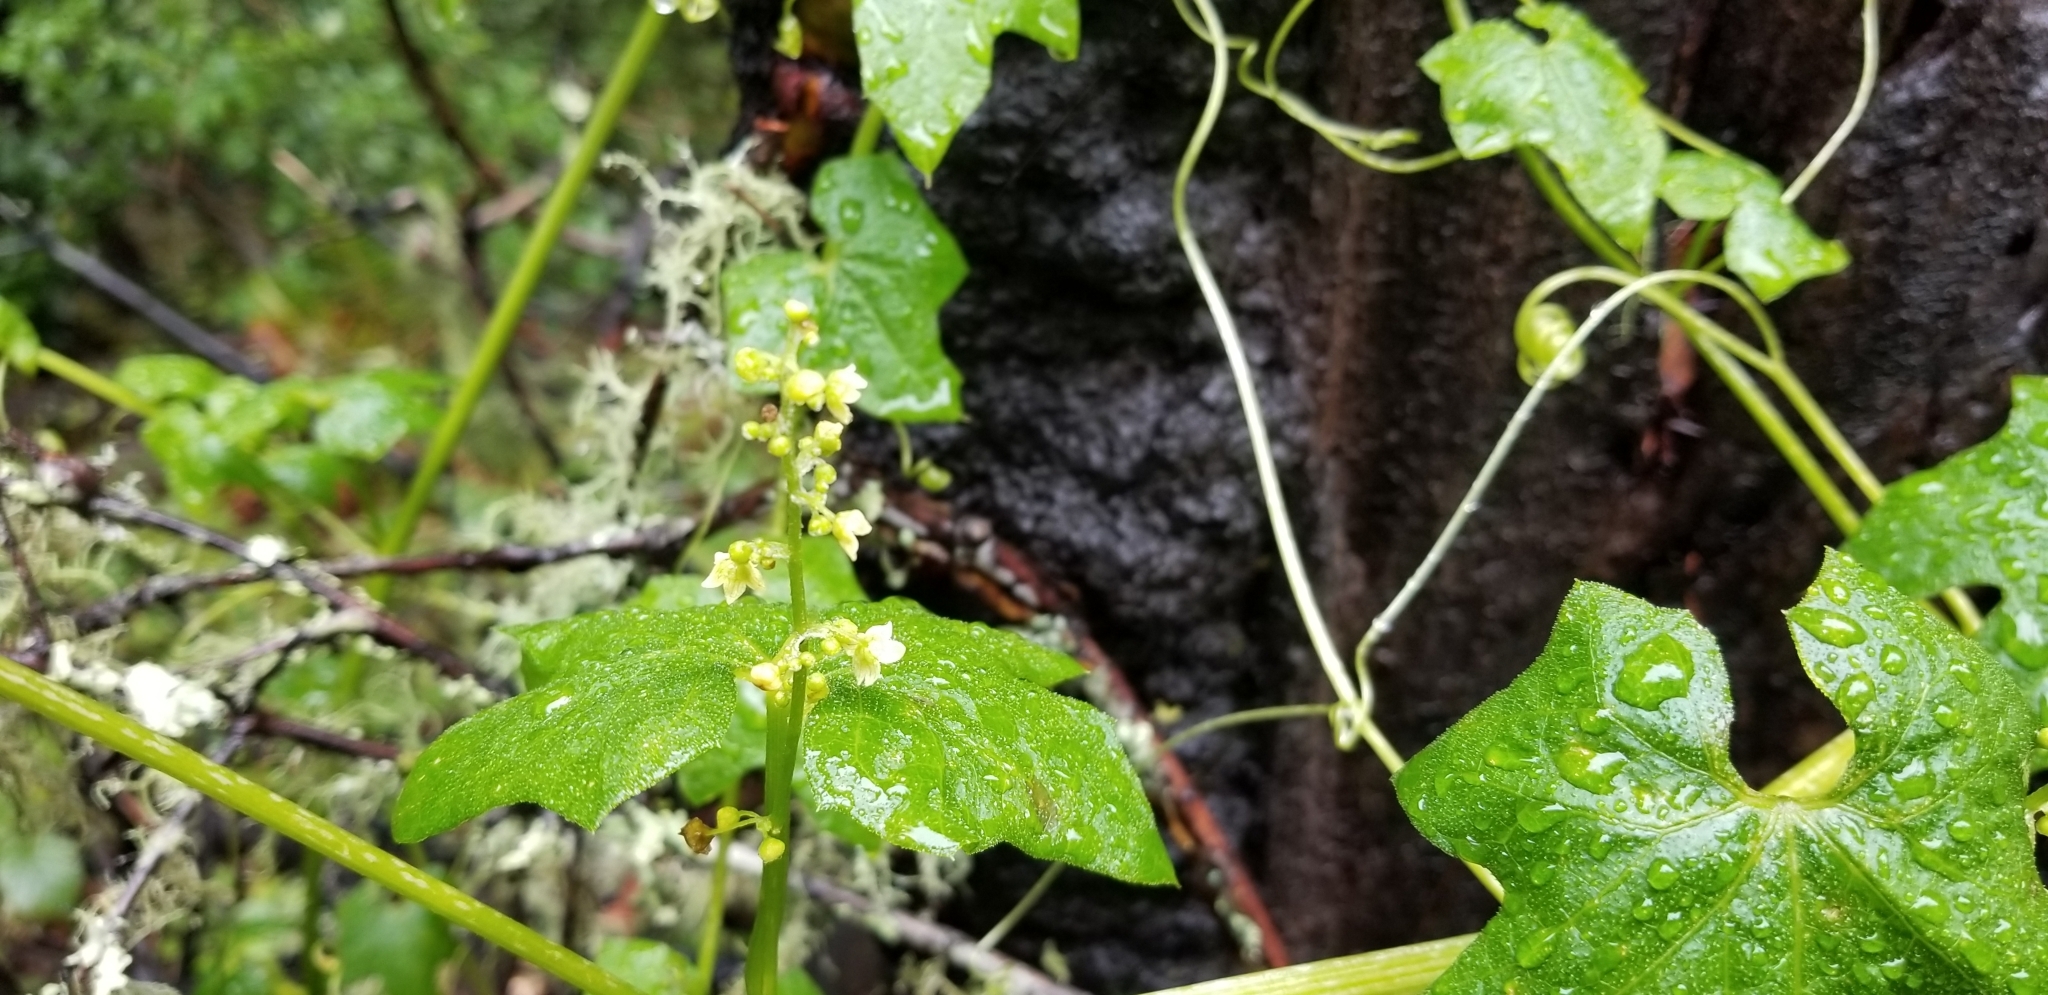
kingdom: Plantae
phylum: Tracheophyta
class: Magnoliopsida
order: Cucurbitales
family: Cucurbitaceae
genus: Marah
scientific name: Marah fabacea
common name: California manroot
